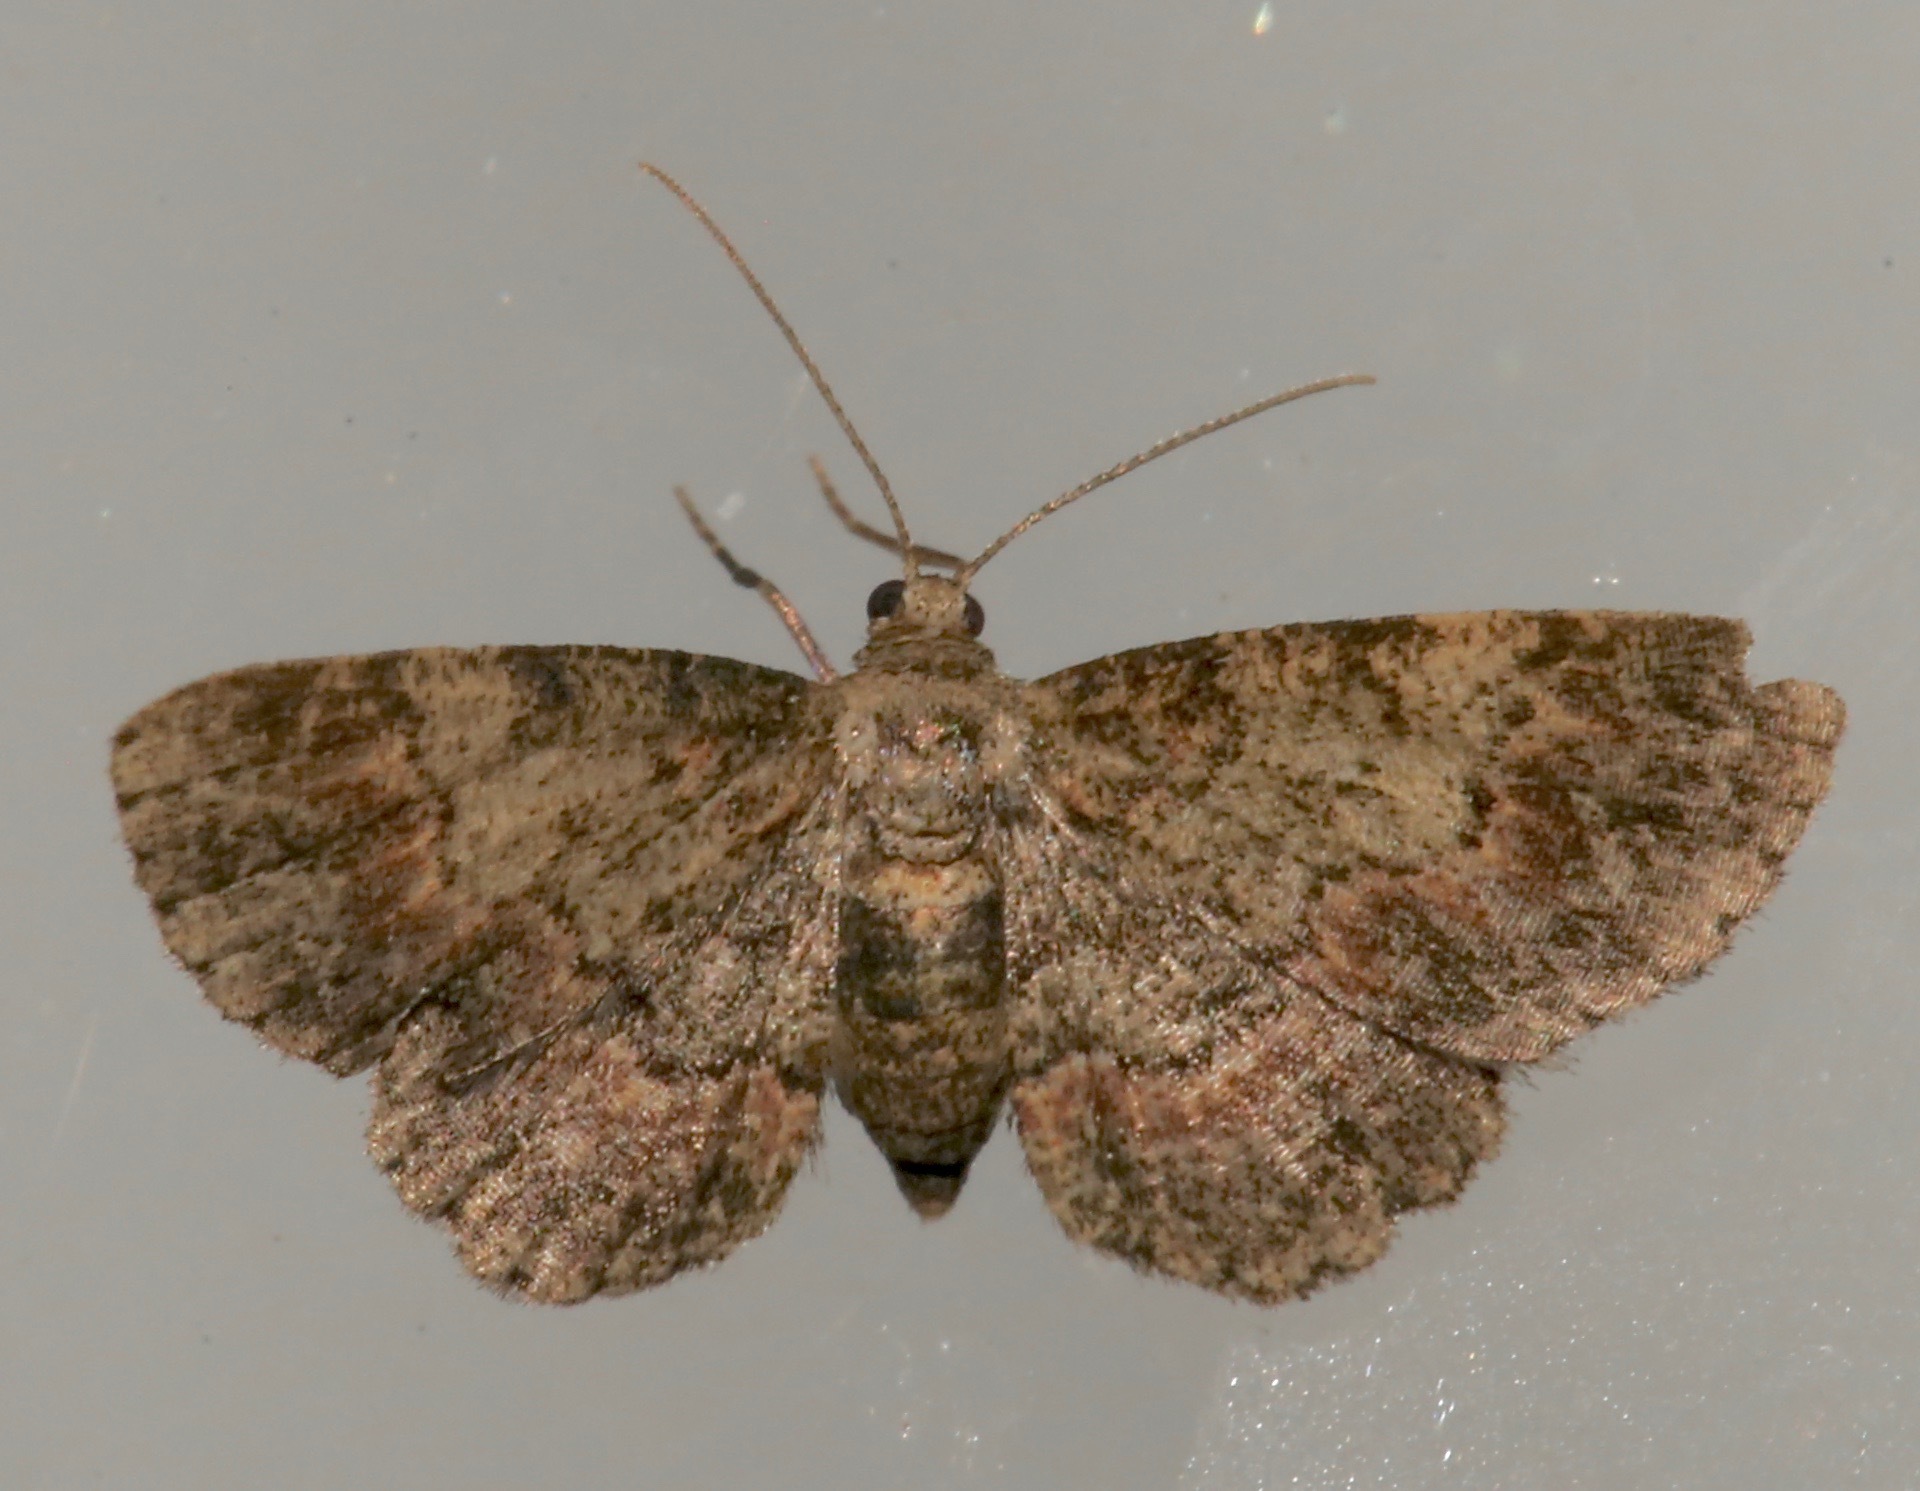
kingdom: Animalia
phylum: Arthropoda
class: Insecta
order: Lepidoptera
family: Geometridae
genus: Glenoides
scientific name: Glenoides texanaria
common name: Texas gray
